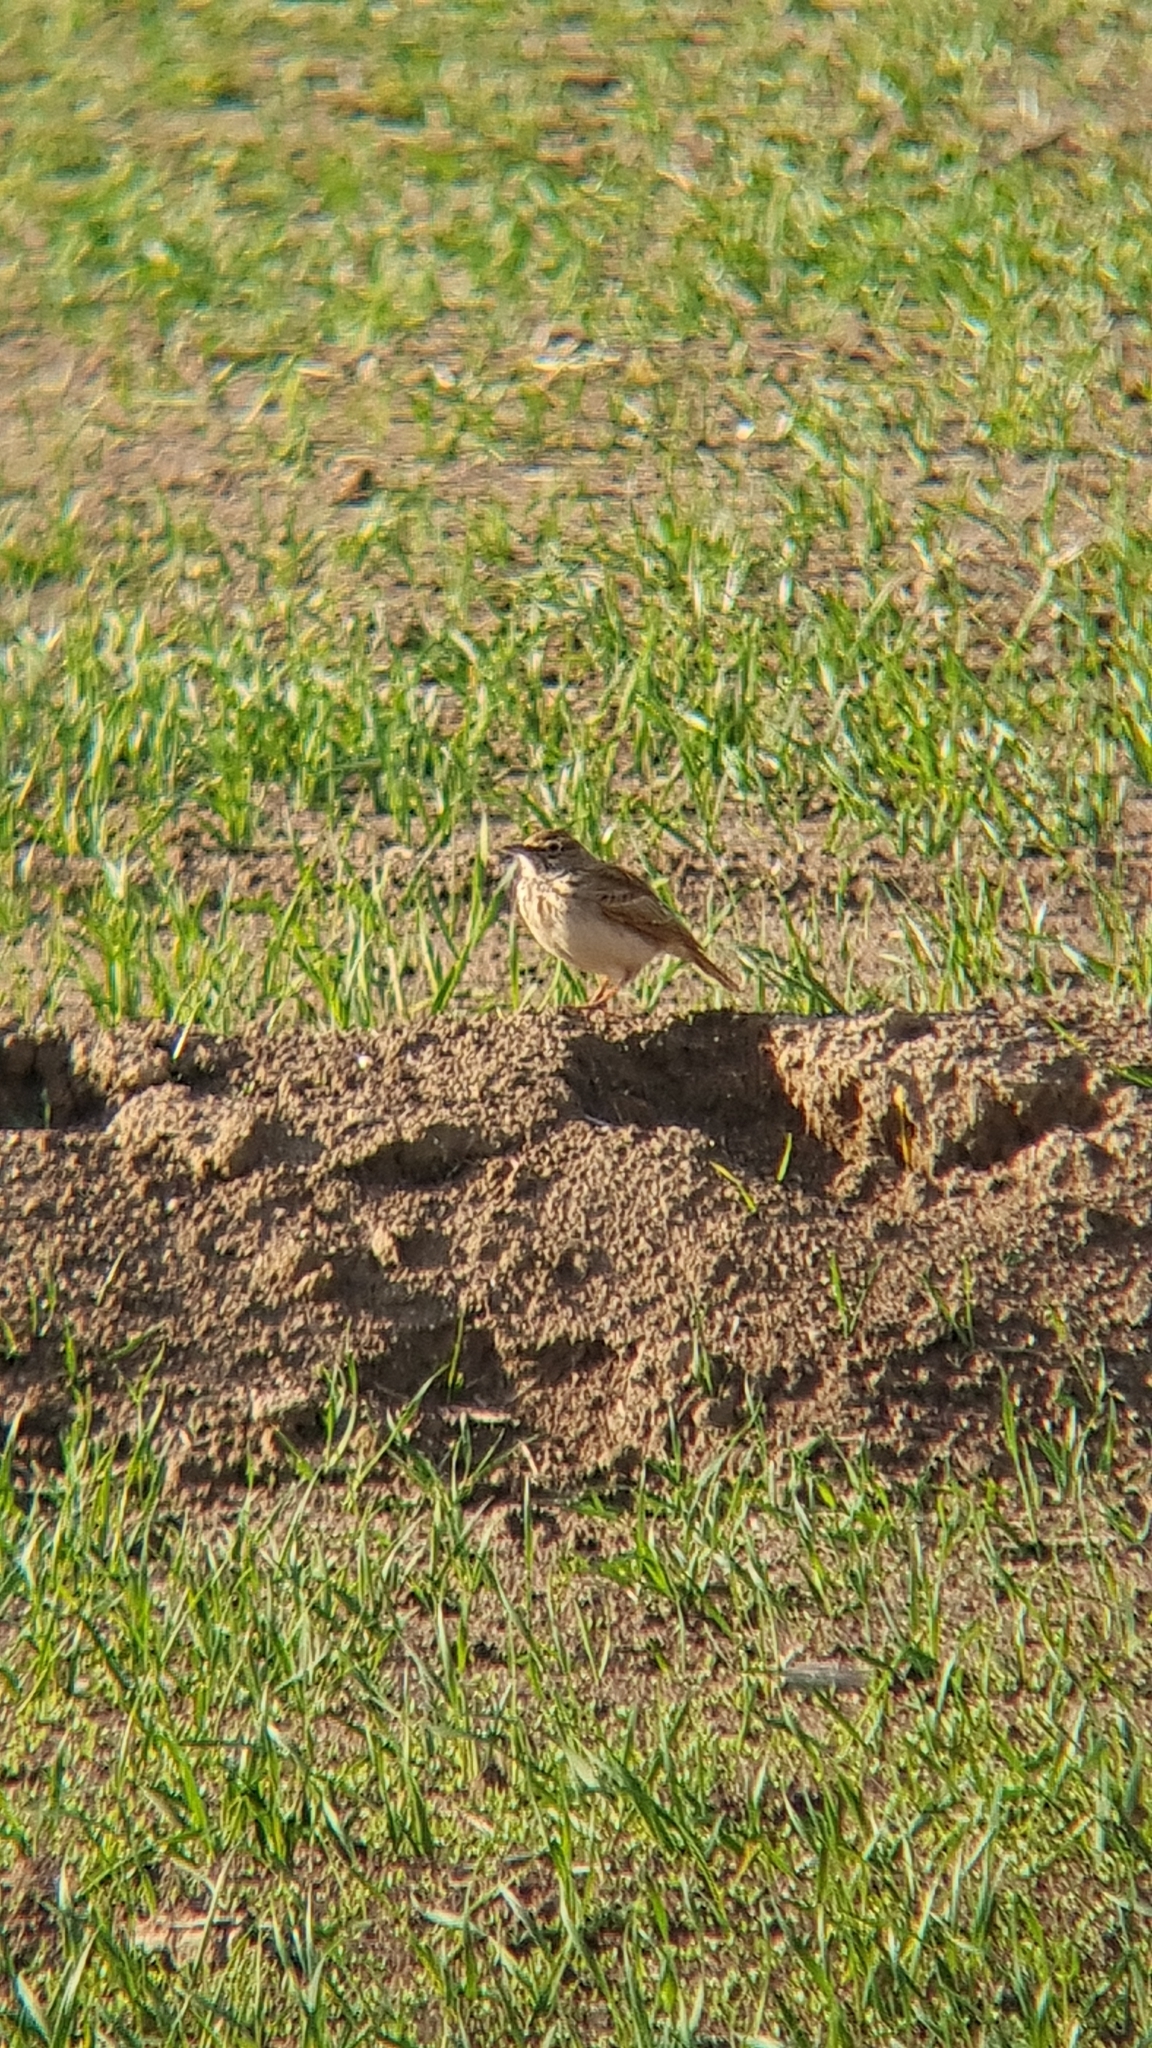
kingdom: Animalia
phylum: Chordata
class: Aves
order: Passeriformes
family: Alaudidae
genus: Galerida
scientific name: Galerida cristata
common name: Crested lark
